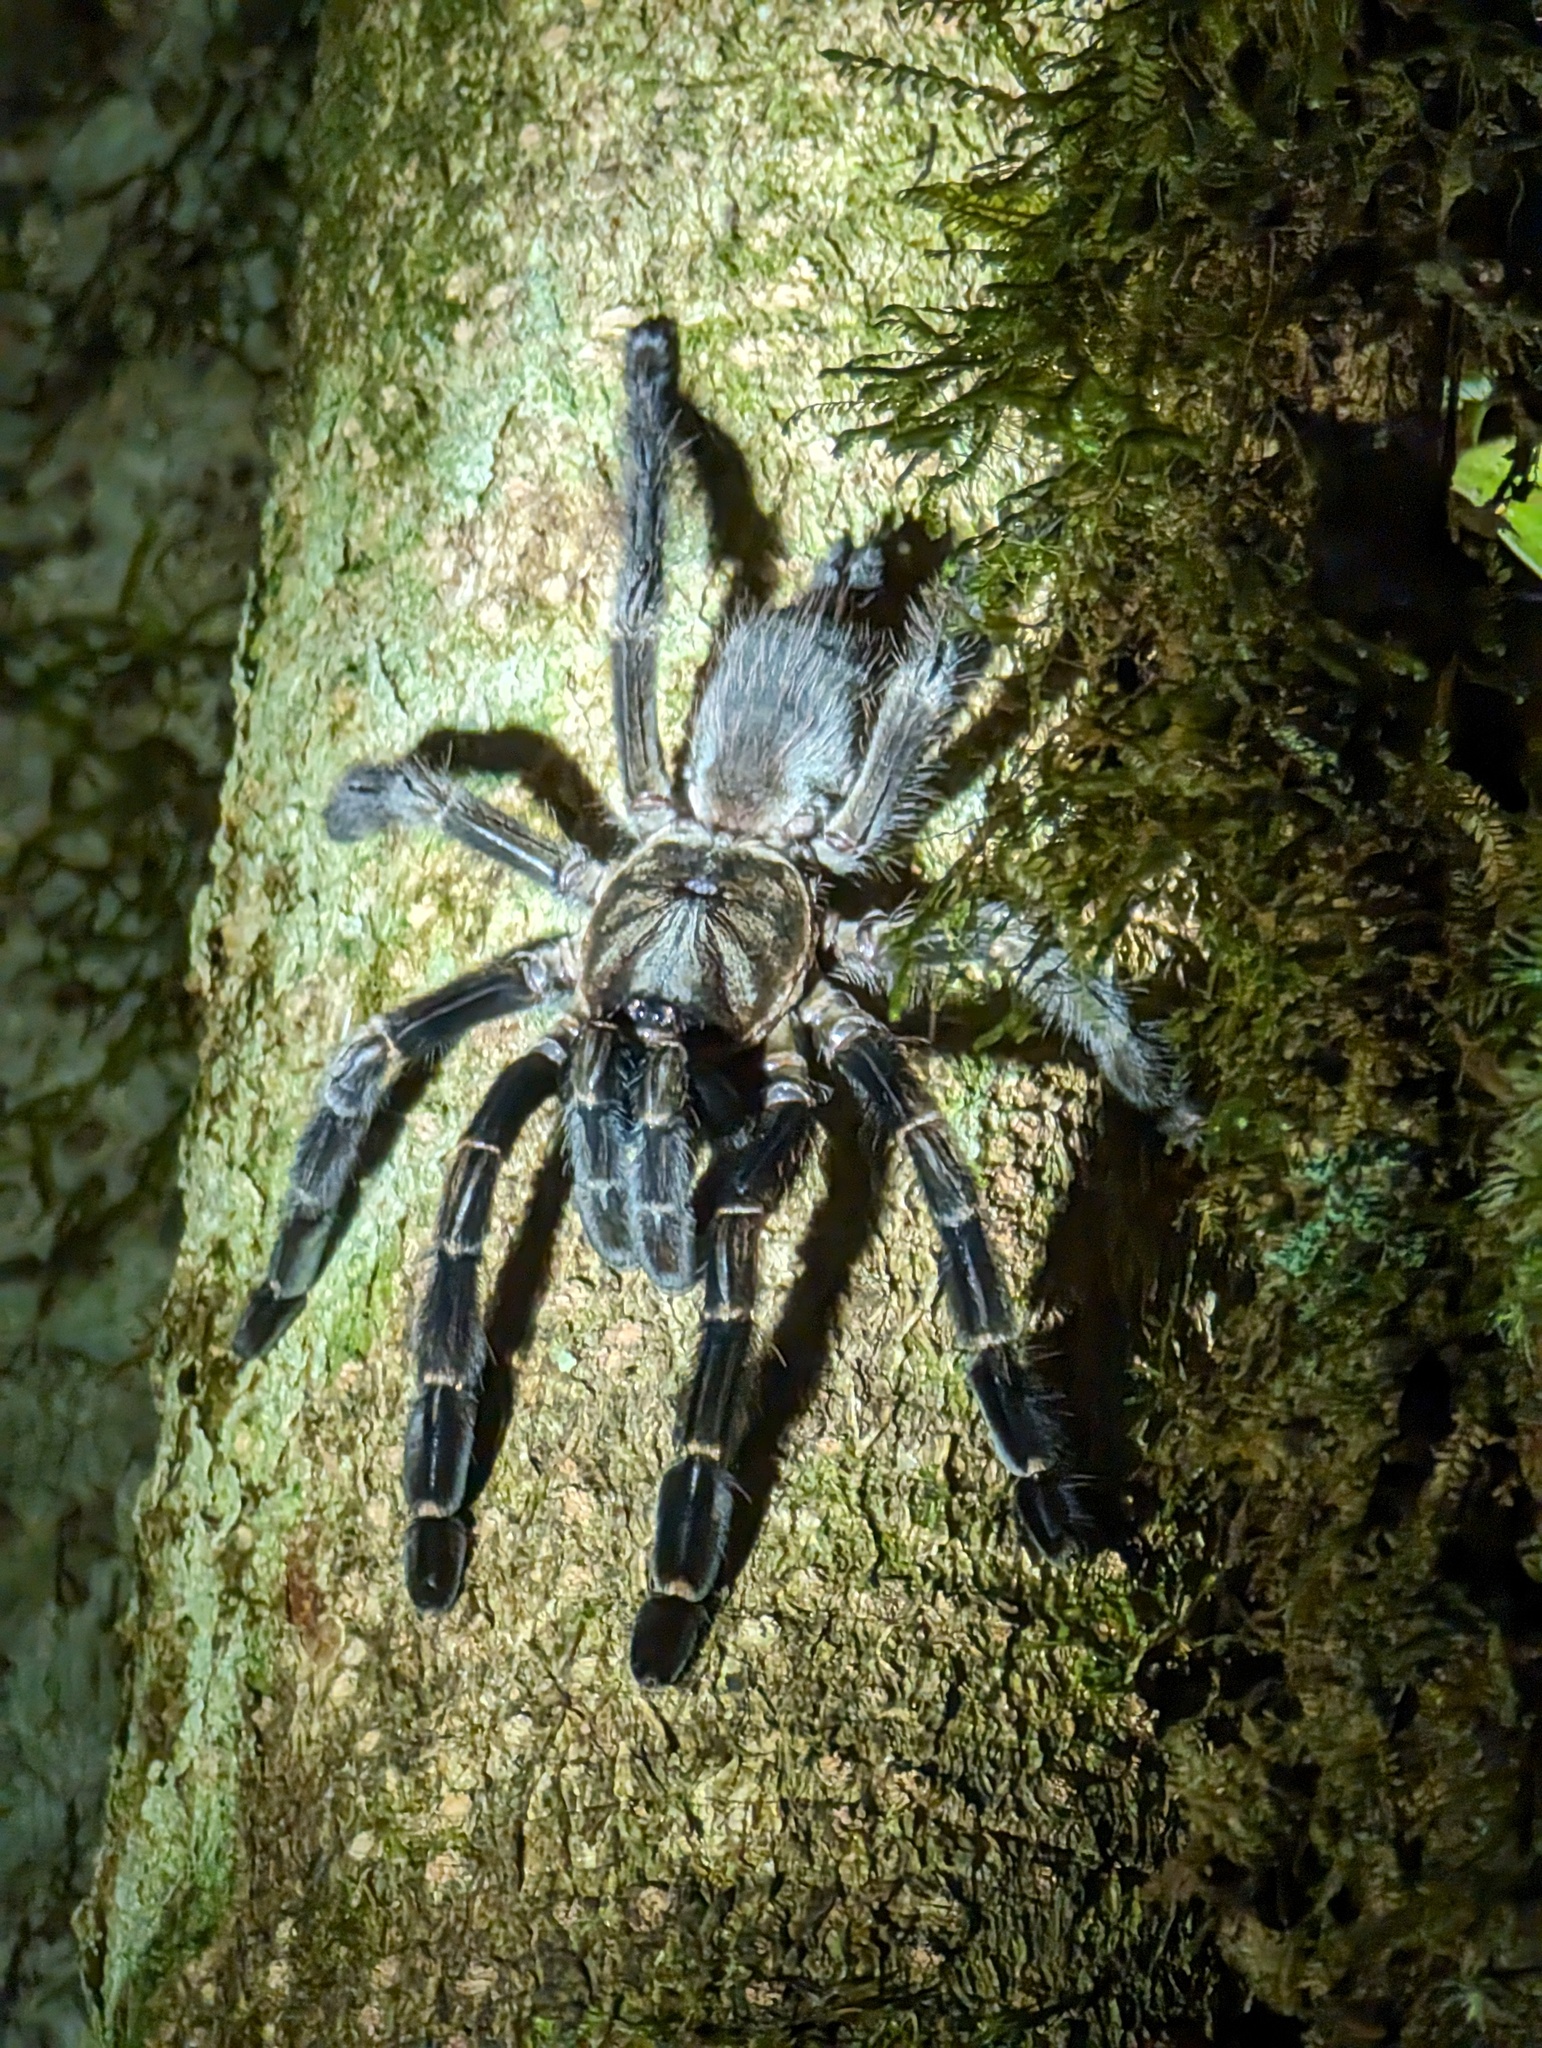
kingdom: Animalia
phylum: Arthropoda
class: Arachnida
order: Araneae
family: Theraphosidae
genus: Psalmopoeus
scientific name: Psalmopoeus reduncus
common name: Tarantula spiders
